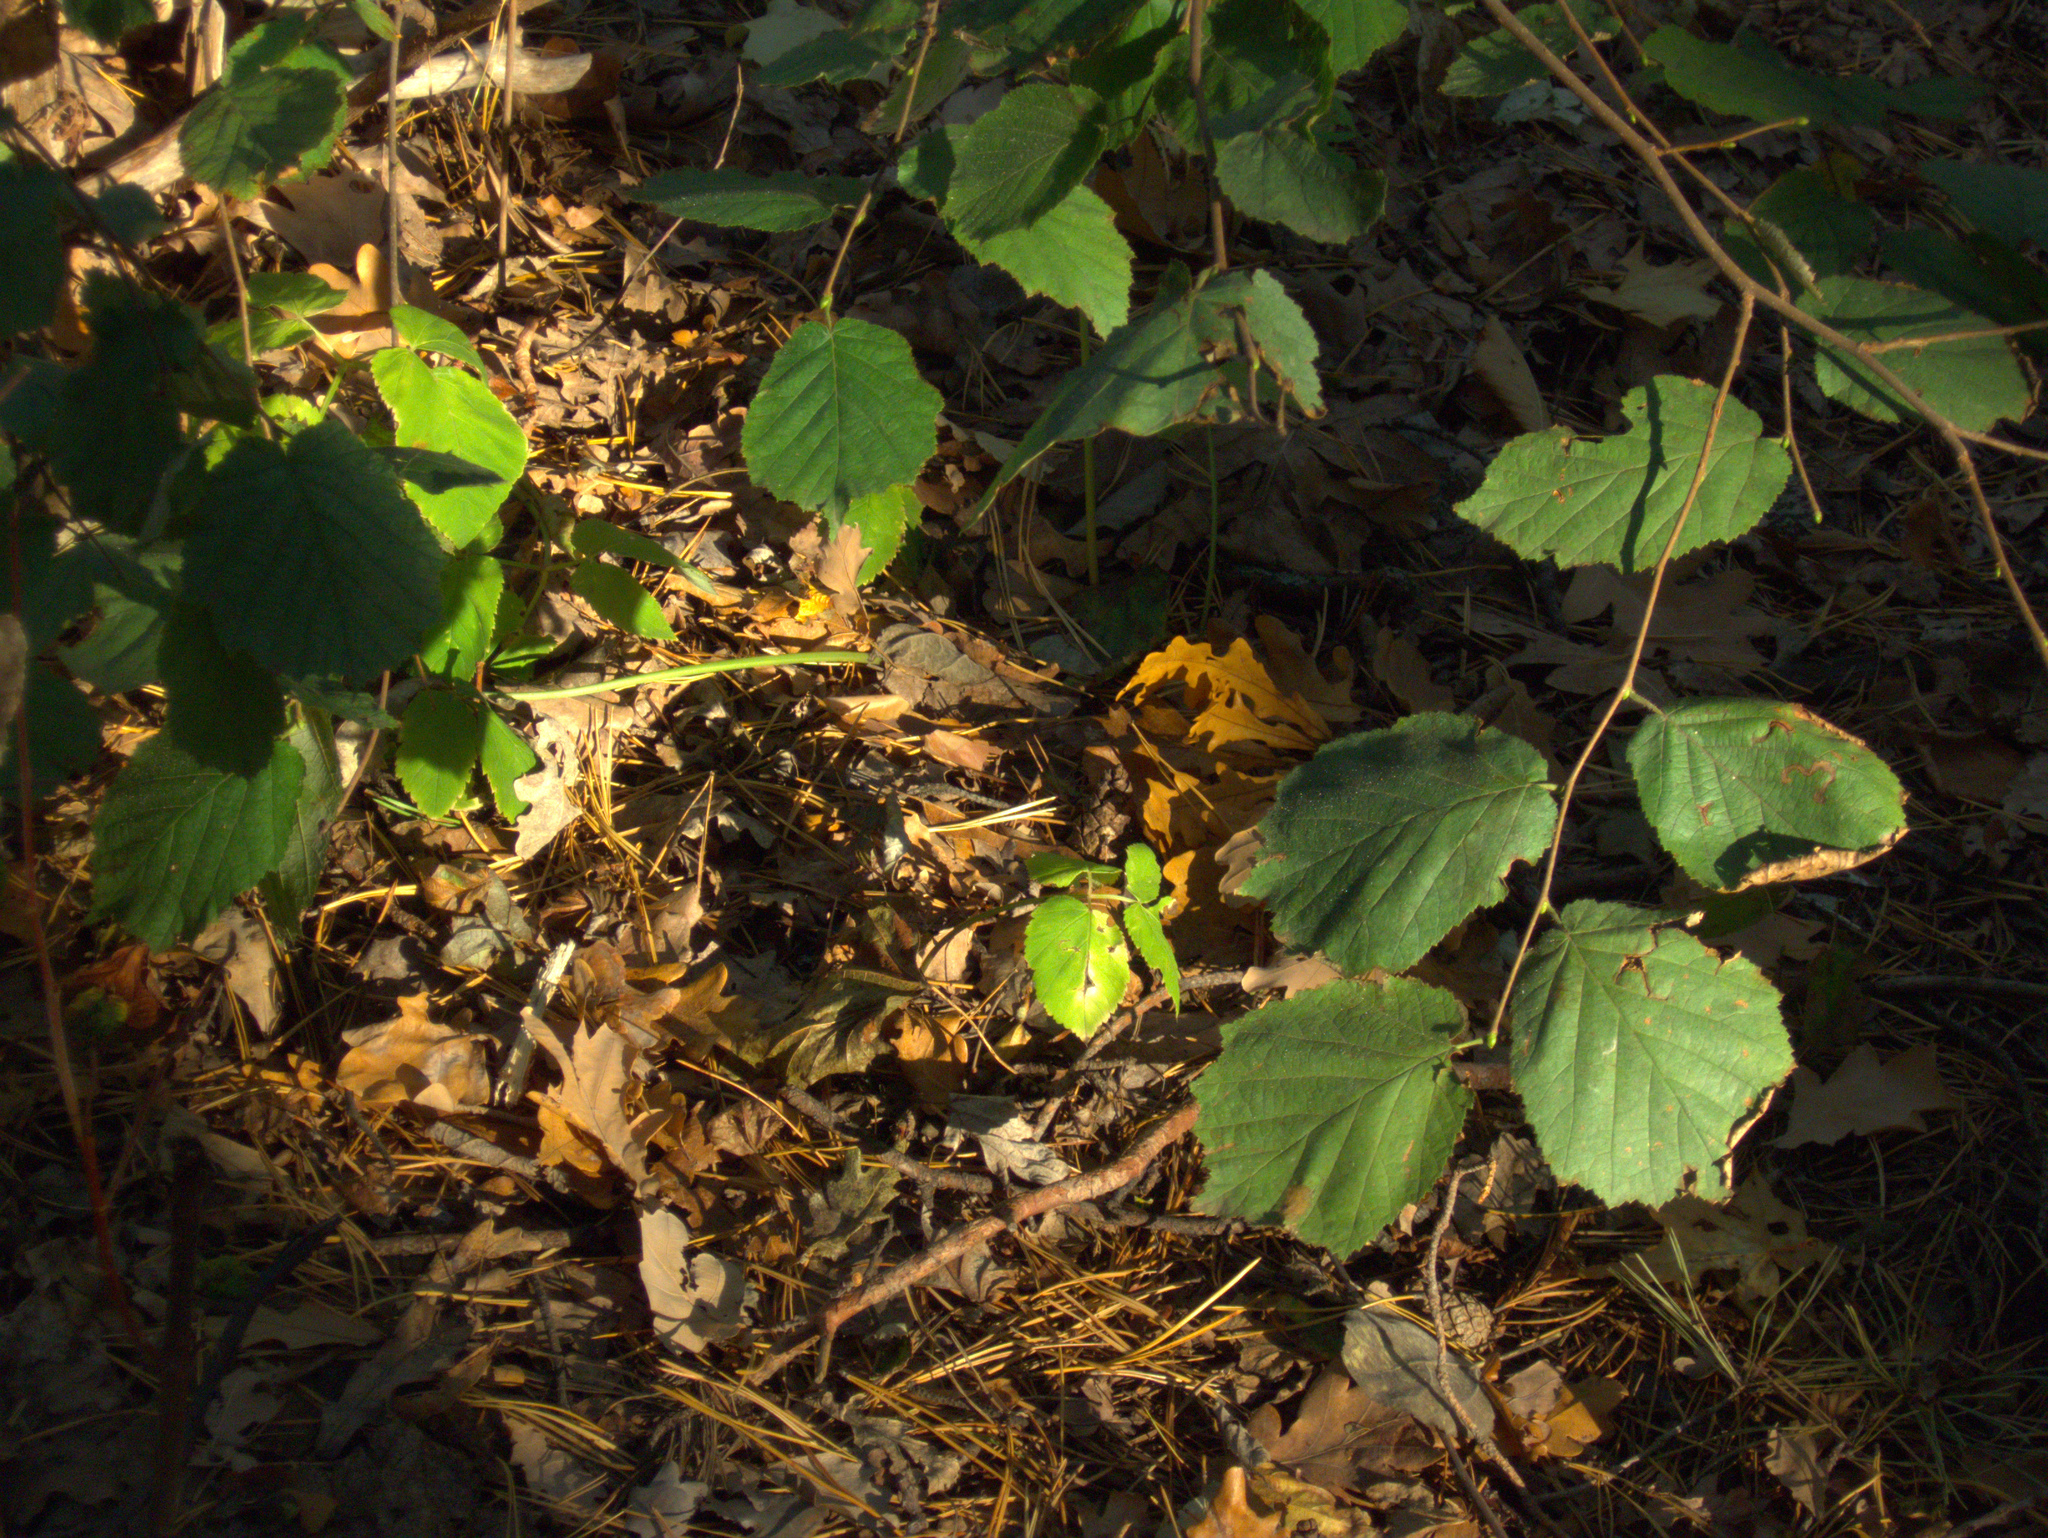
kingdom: Plantae
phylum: Tracheophyta
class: Magnoliopsida
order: Fagales
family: Betulaceae
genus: Corylus
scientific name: Corylus avellana
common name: European hazel
